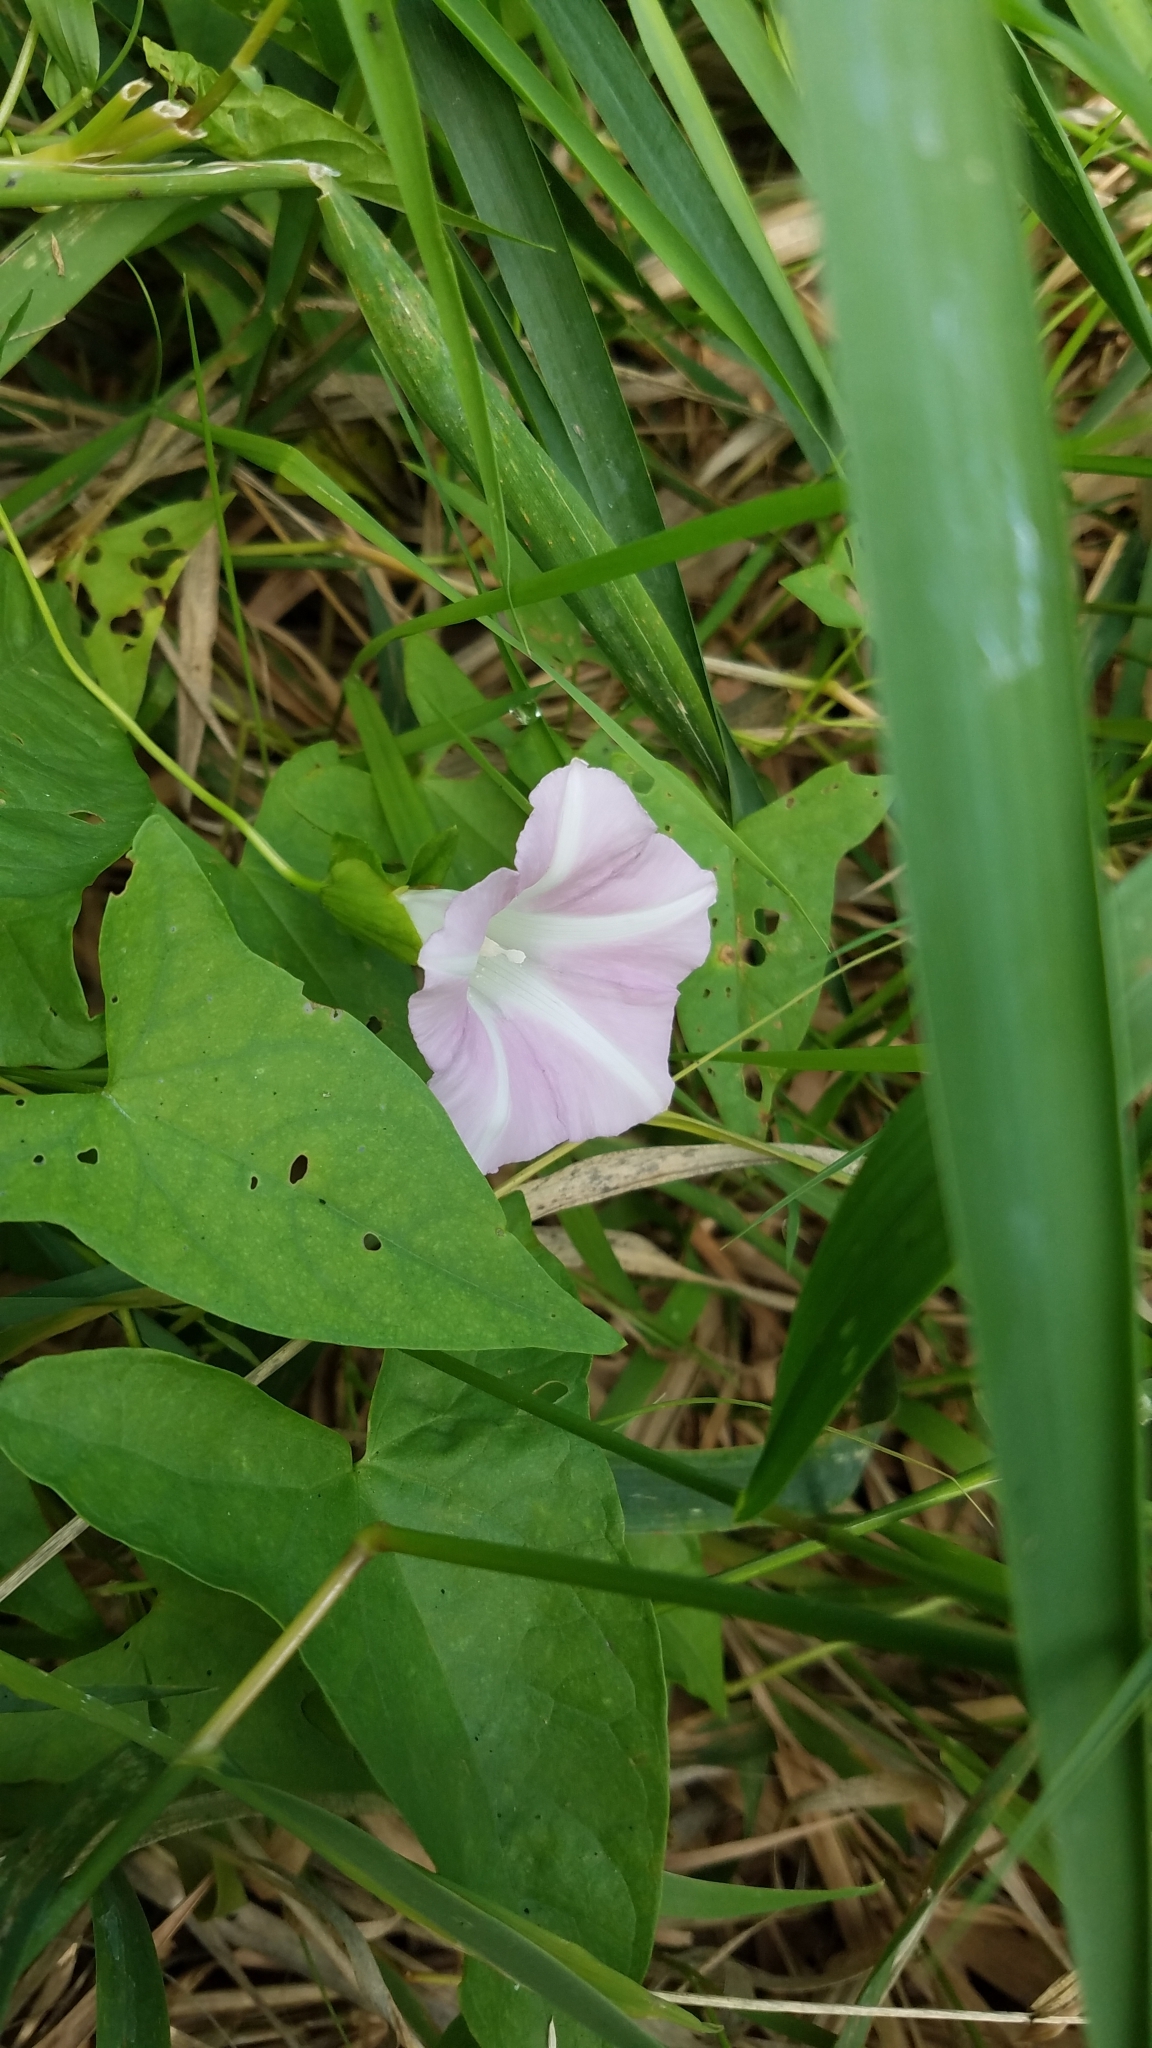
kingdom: Plantae
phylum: Tracheophyta
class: Magnoliopsida
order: Solanales
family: Convolvulaceae
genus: Calystegia
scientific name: Calystegia sepium
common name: Hedge bindweed
